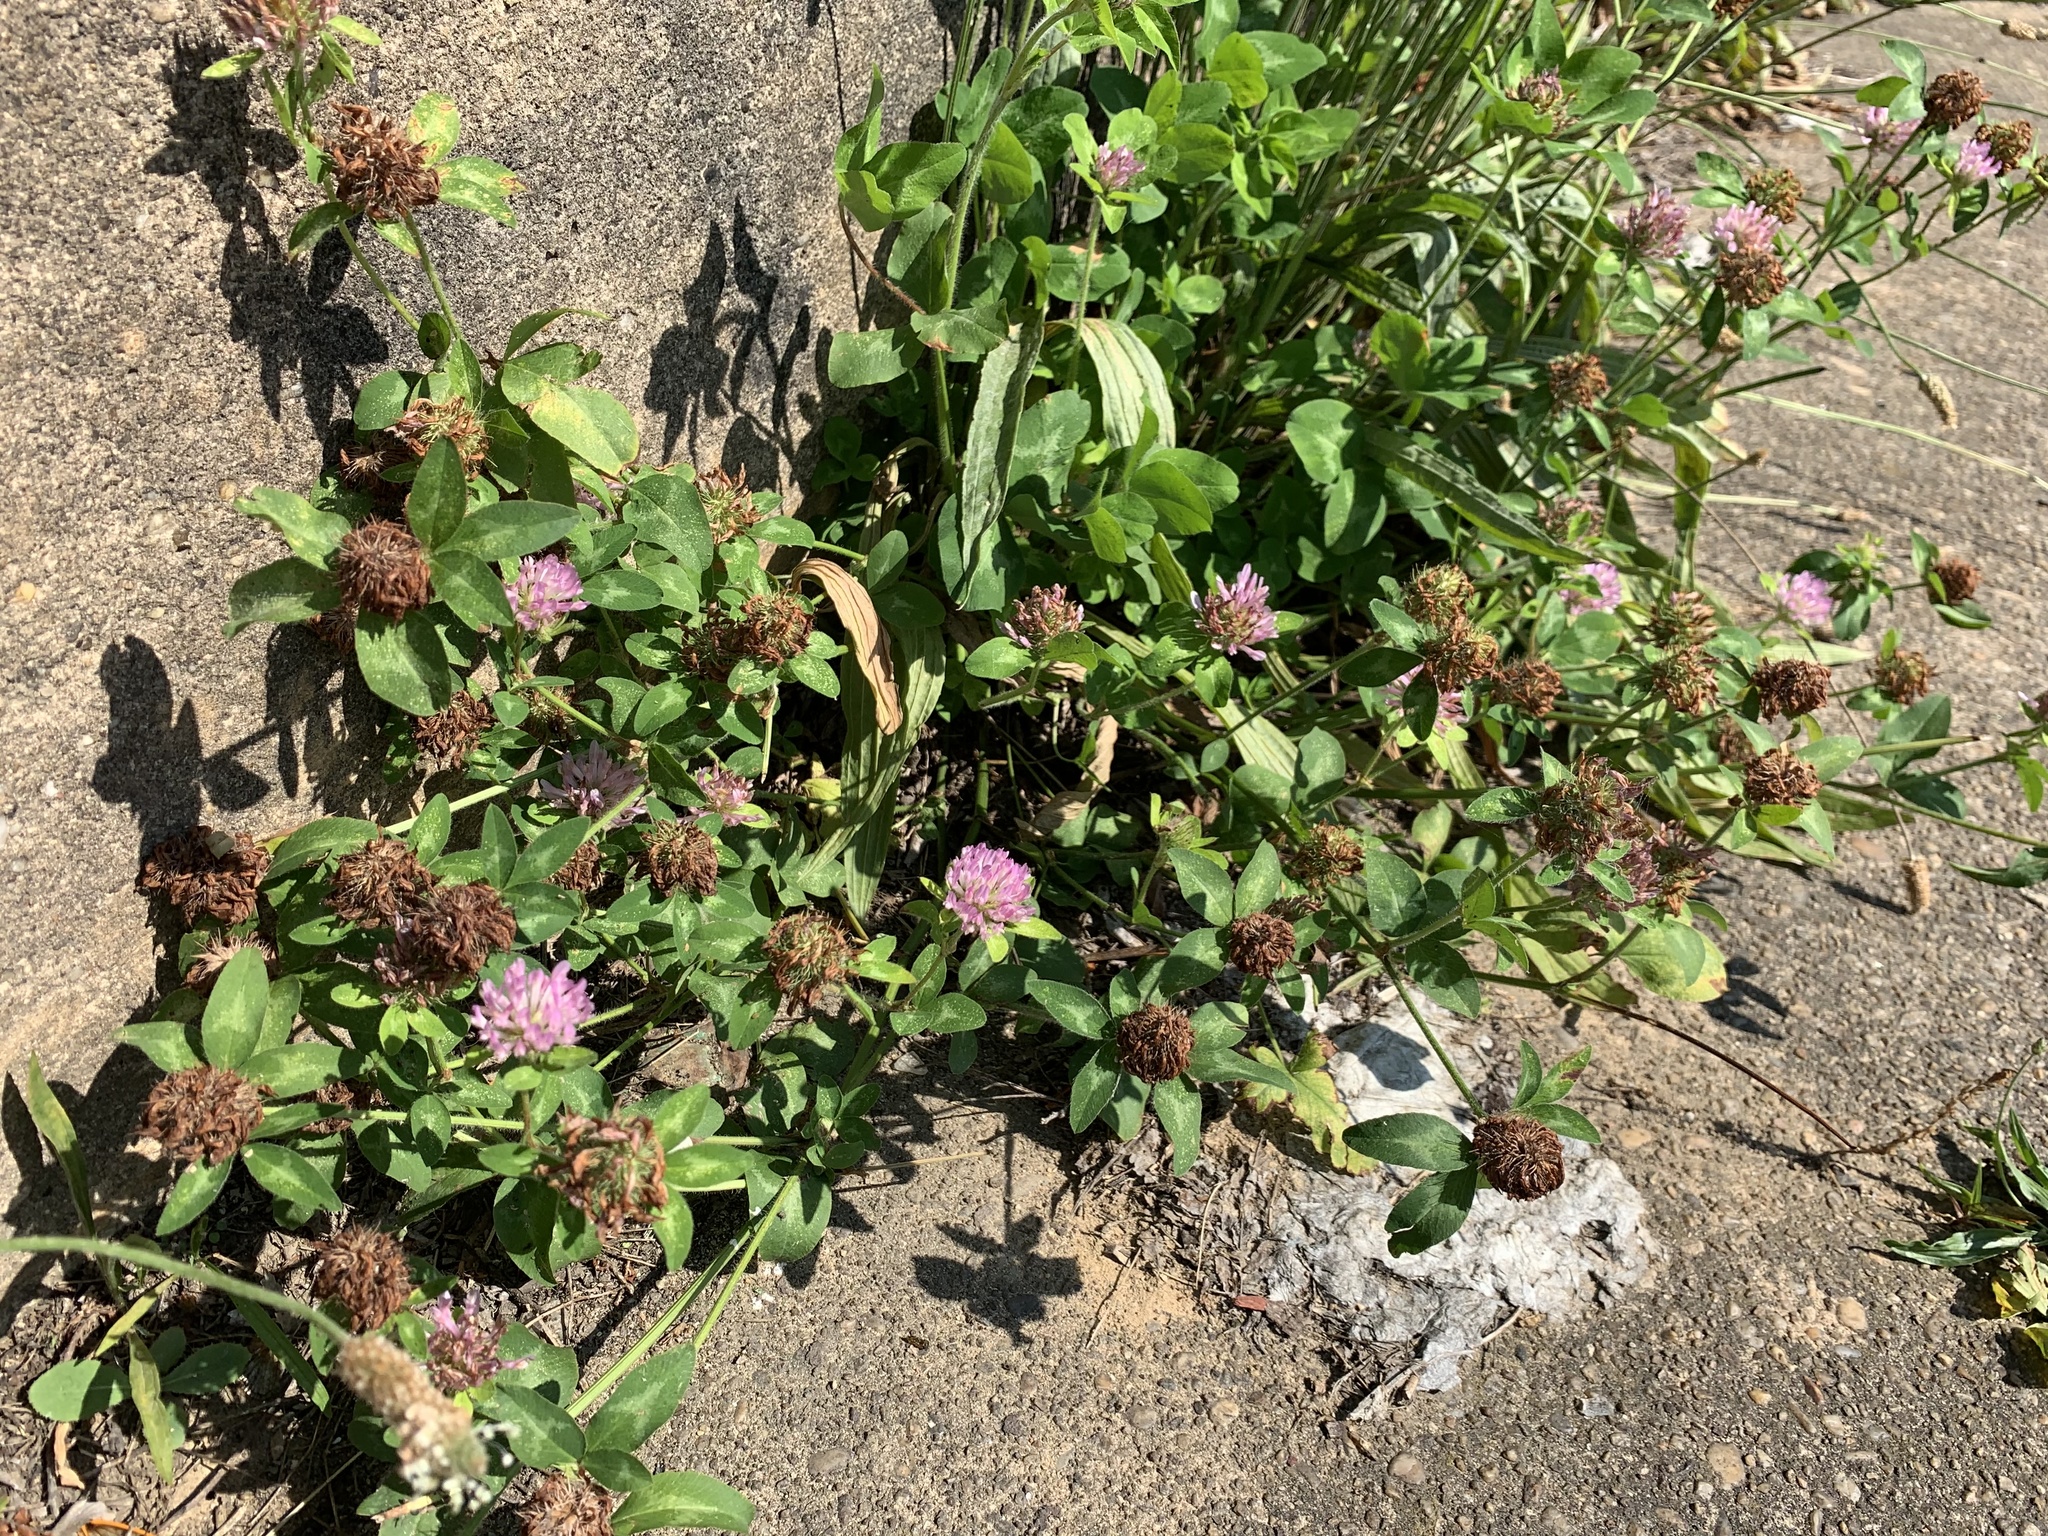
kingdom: Plantae
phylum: Tracheophyta
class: Magnoliopsida
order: Fabales
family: Fabaceae
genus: Trifolium
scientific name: Trifolium pratense
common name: Red clover
